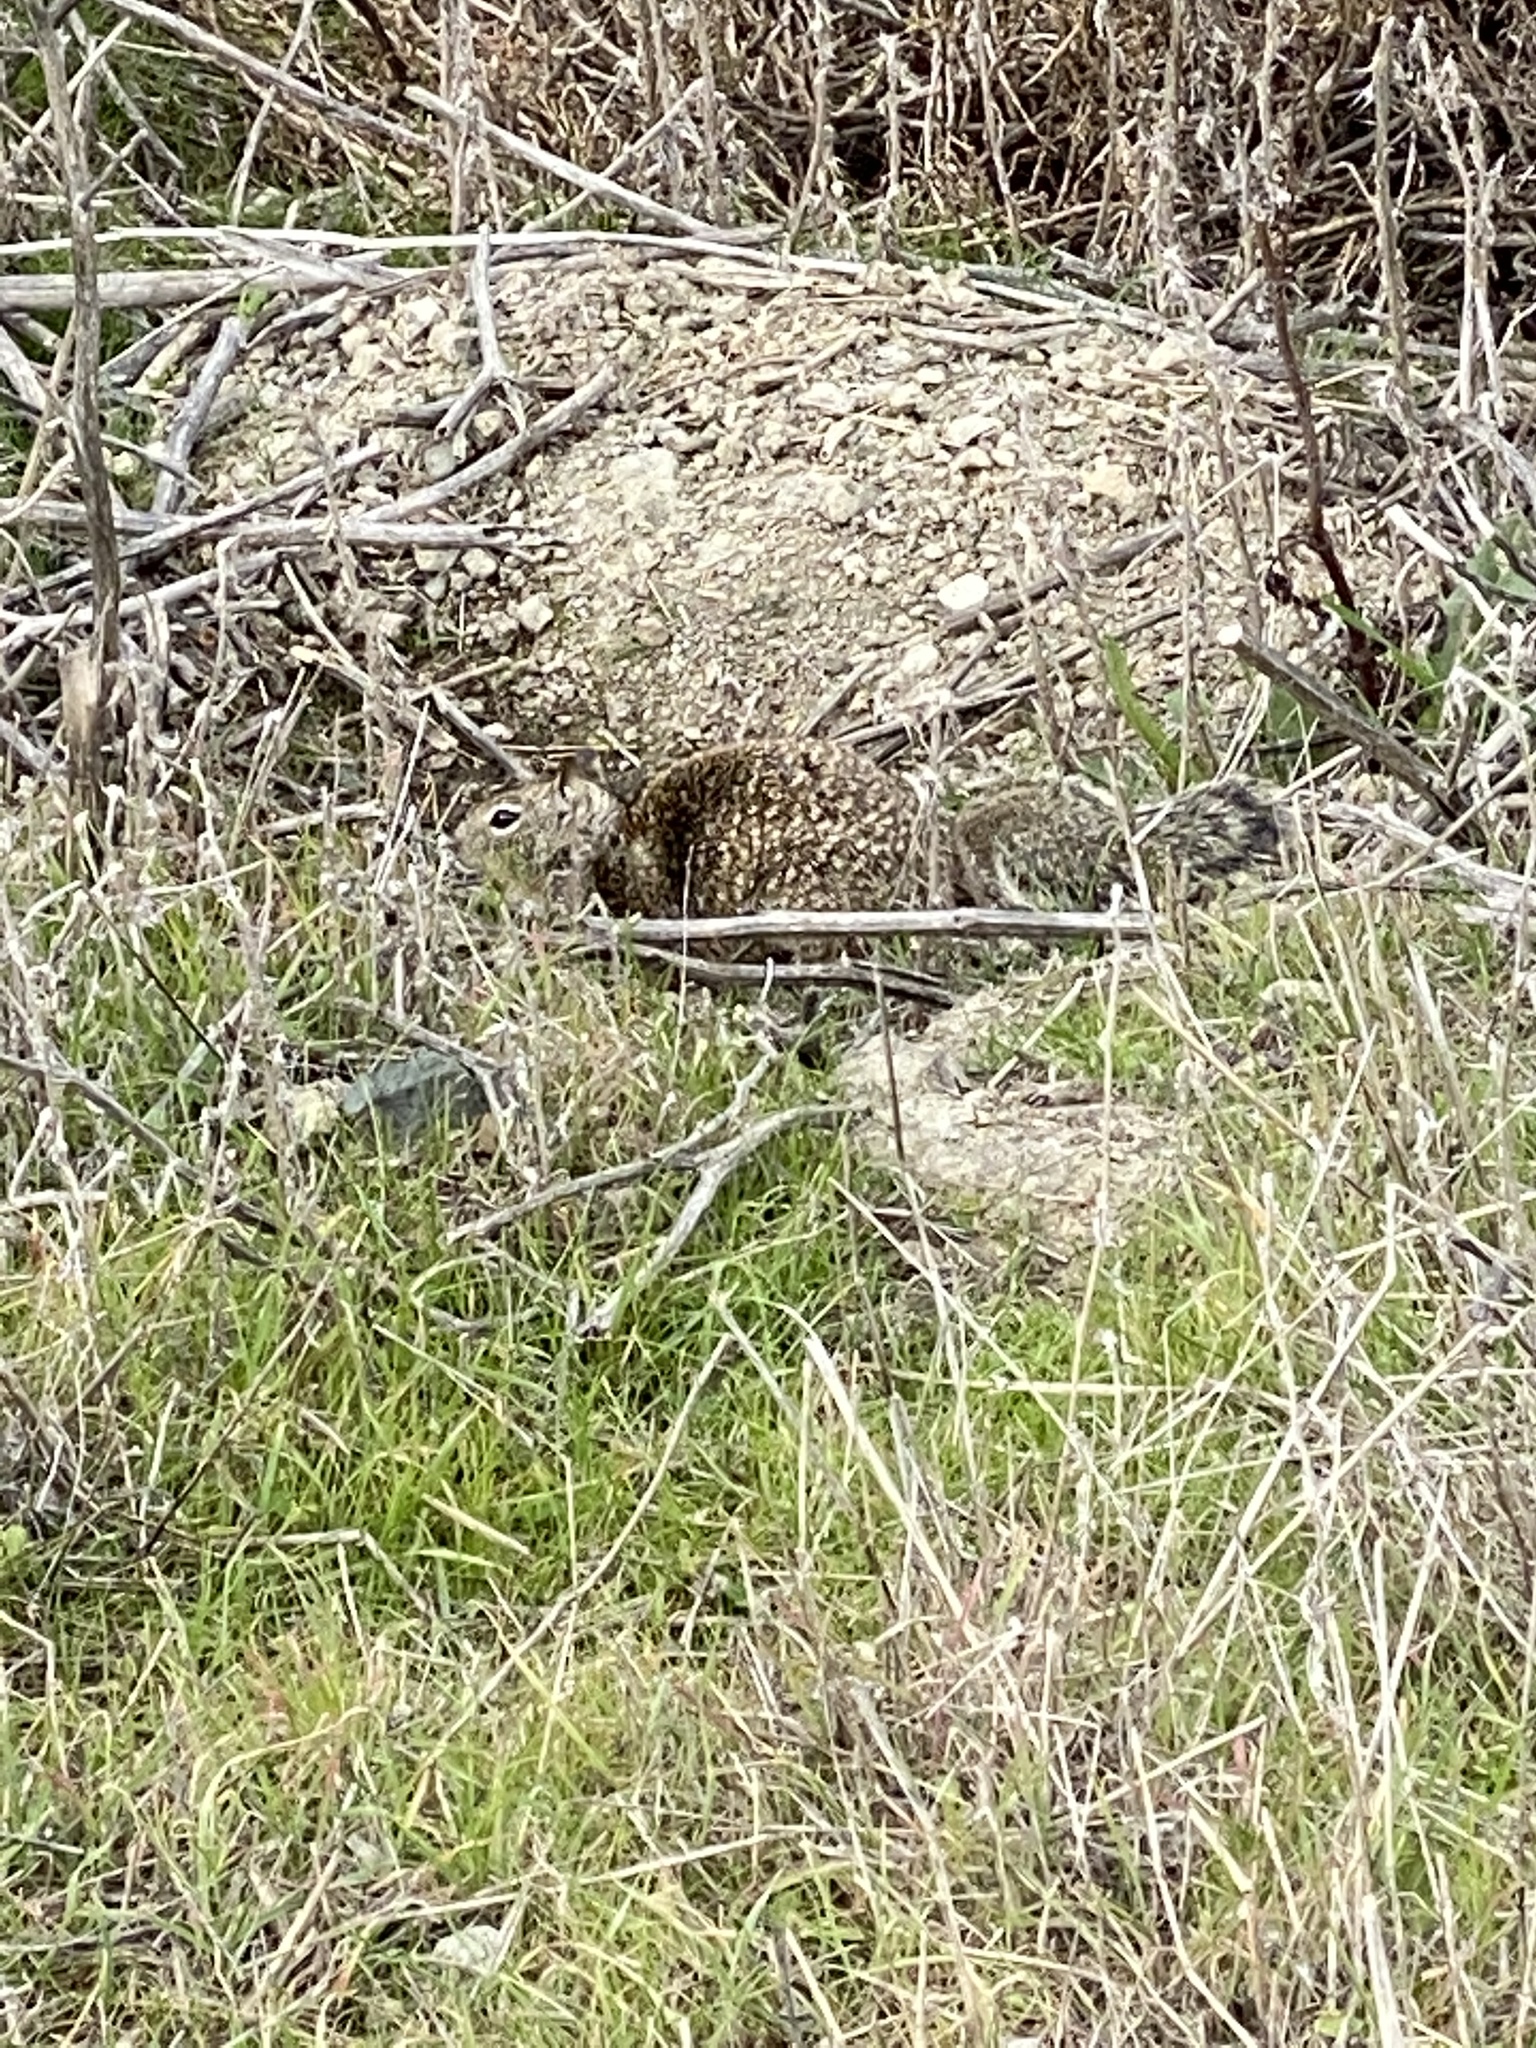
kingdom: Animalia
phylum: Chordata
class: Mammalia
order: Rodentia
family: Sciuridae
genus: Otospermophilus
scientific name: Otospermophilus beecheyi
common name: California ground squirrel
